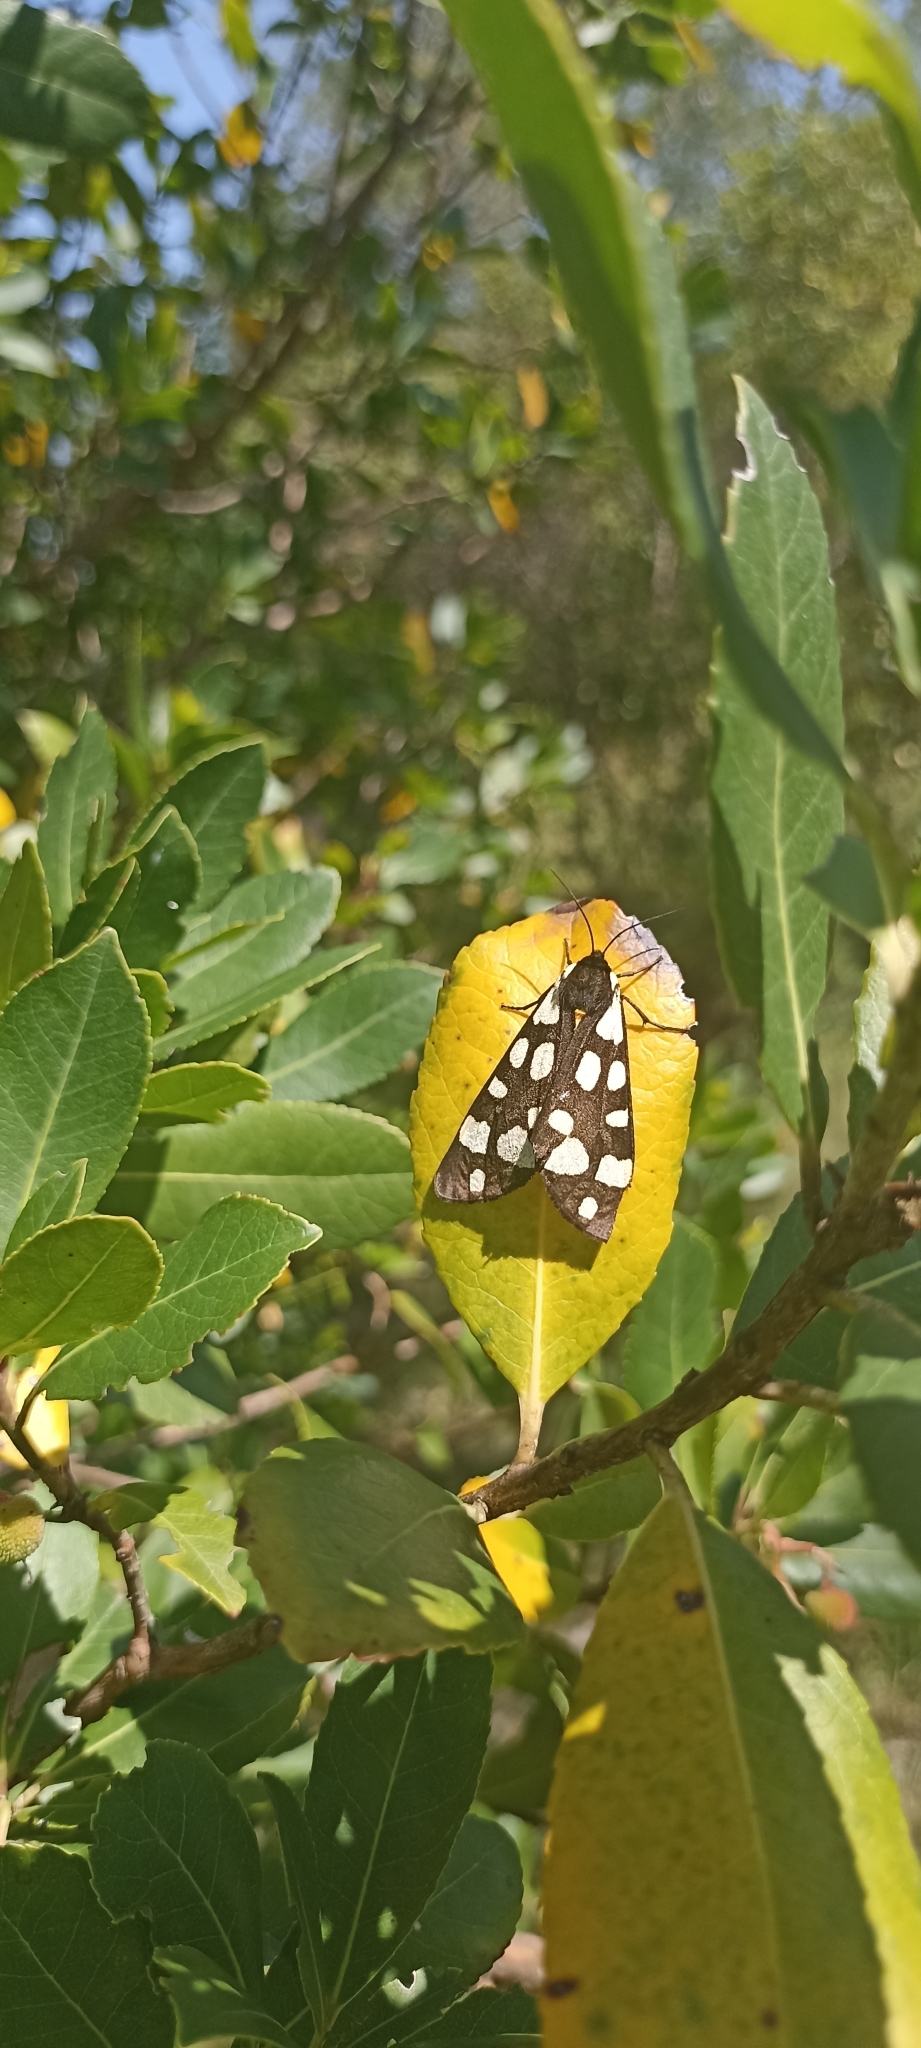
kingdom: Animalia
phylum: Arthropoda
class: Insecta
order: Lepidoptera
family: Erebidae
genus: Epicallia
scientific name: Epicallia villica
